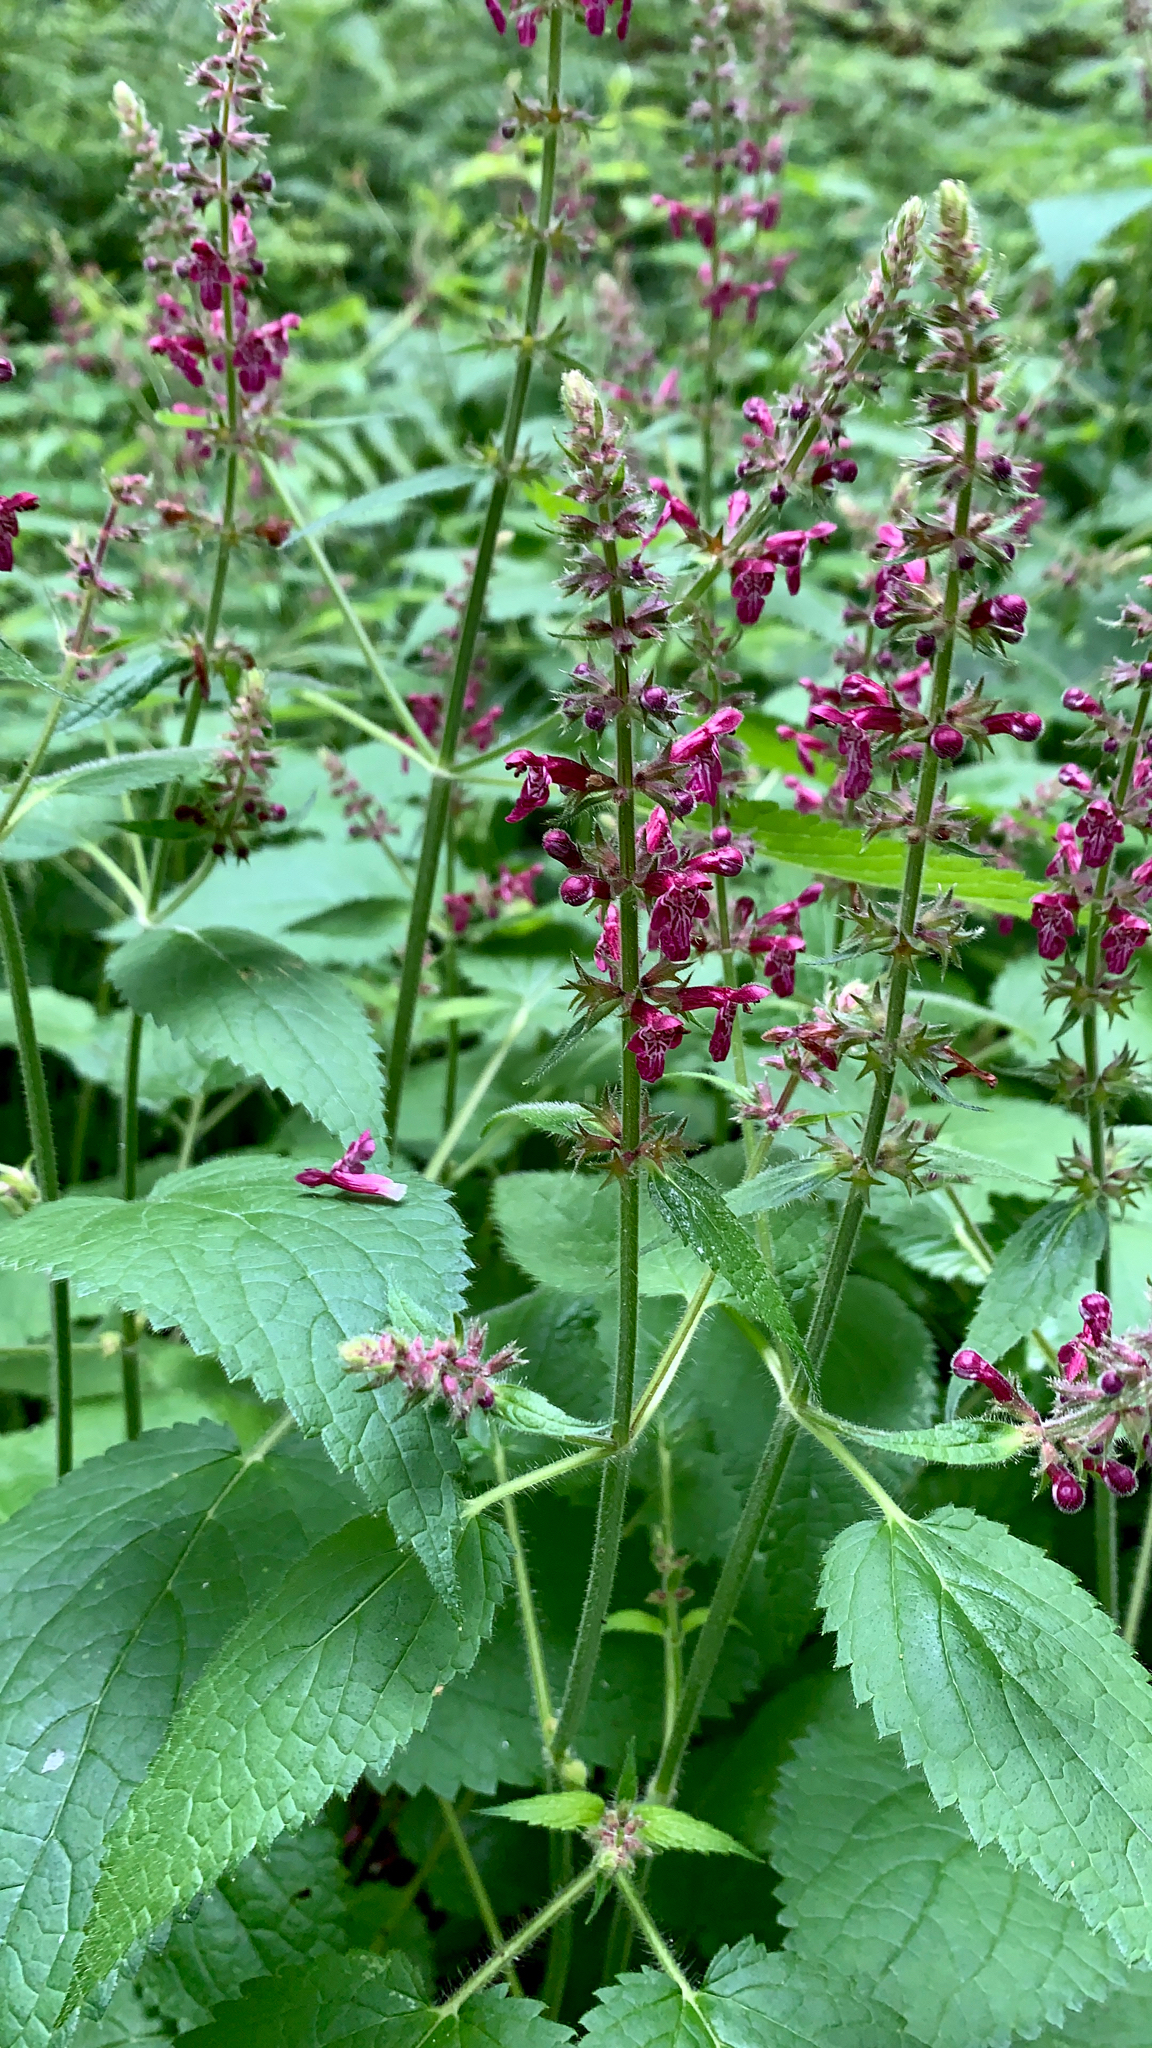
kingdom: Plantae
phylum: Tracheophyta
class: Magnoliopsida
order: Lamiales
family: Lamiaceae
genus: Stachys
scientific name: Stachys sylvatica
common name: Hedge woundwort
